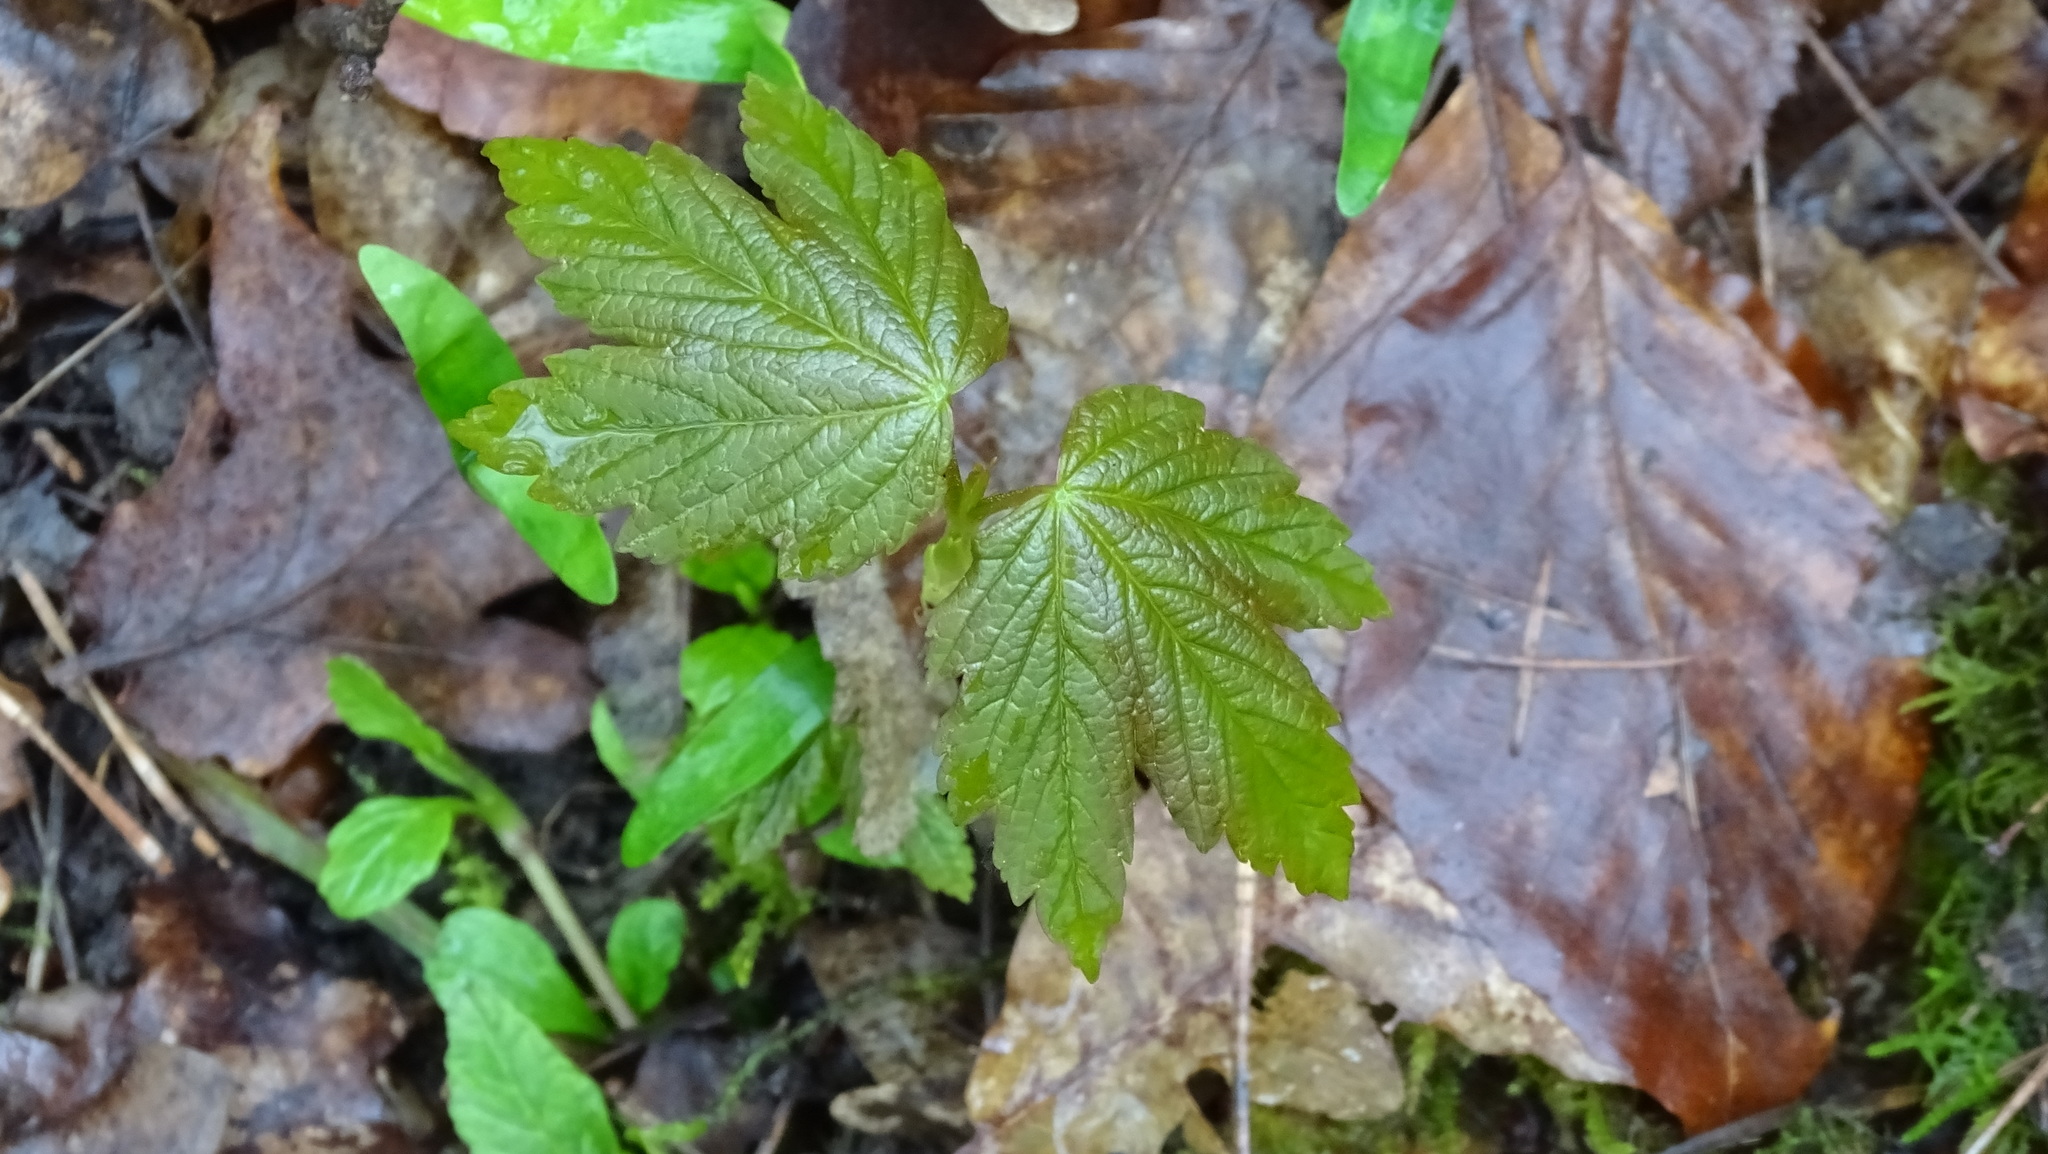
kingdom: Plantae
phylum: Tracheophyta
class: Magnoliopsida
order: Sapindales
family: Sapindaceae
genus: Acer
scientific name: Acer pseudoplatanus
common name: Sycamore
